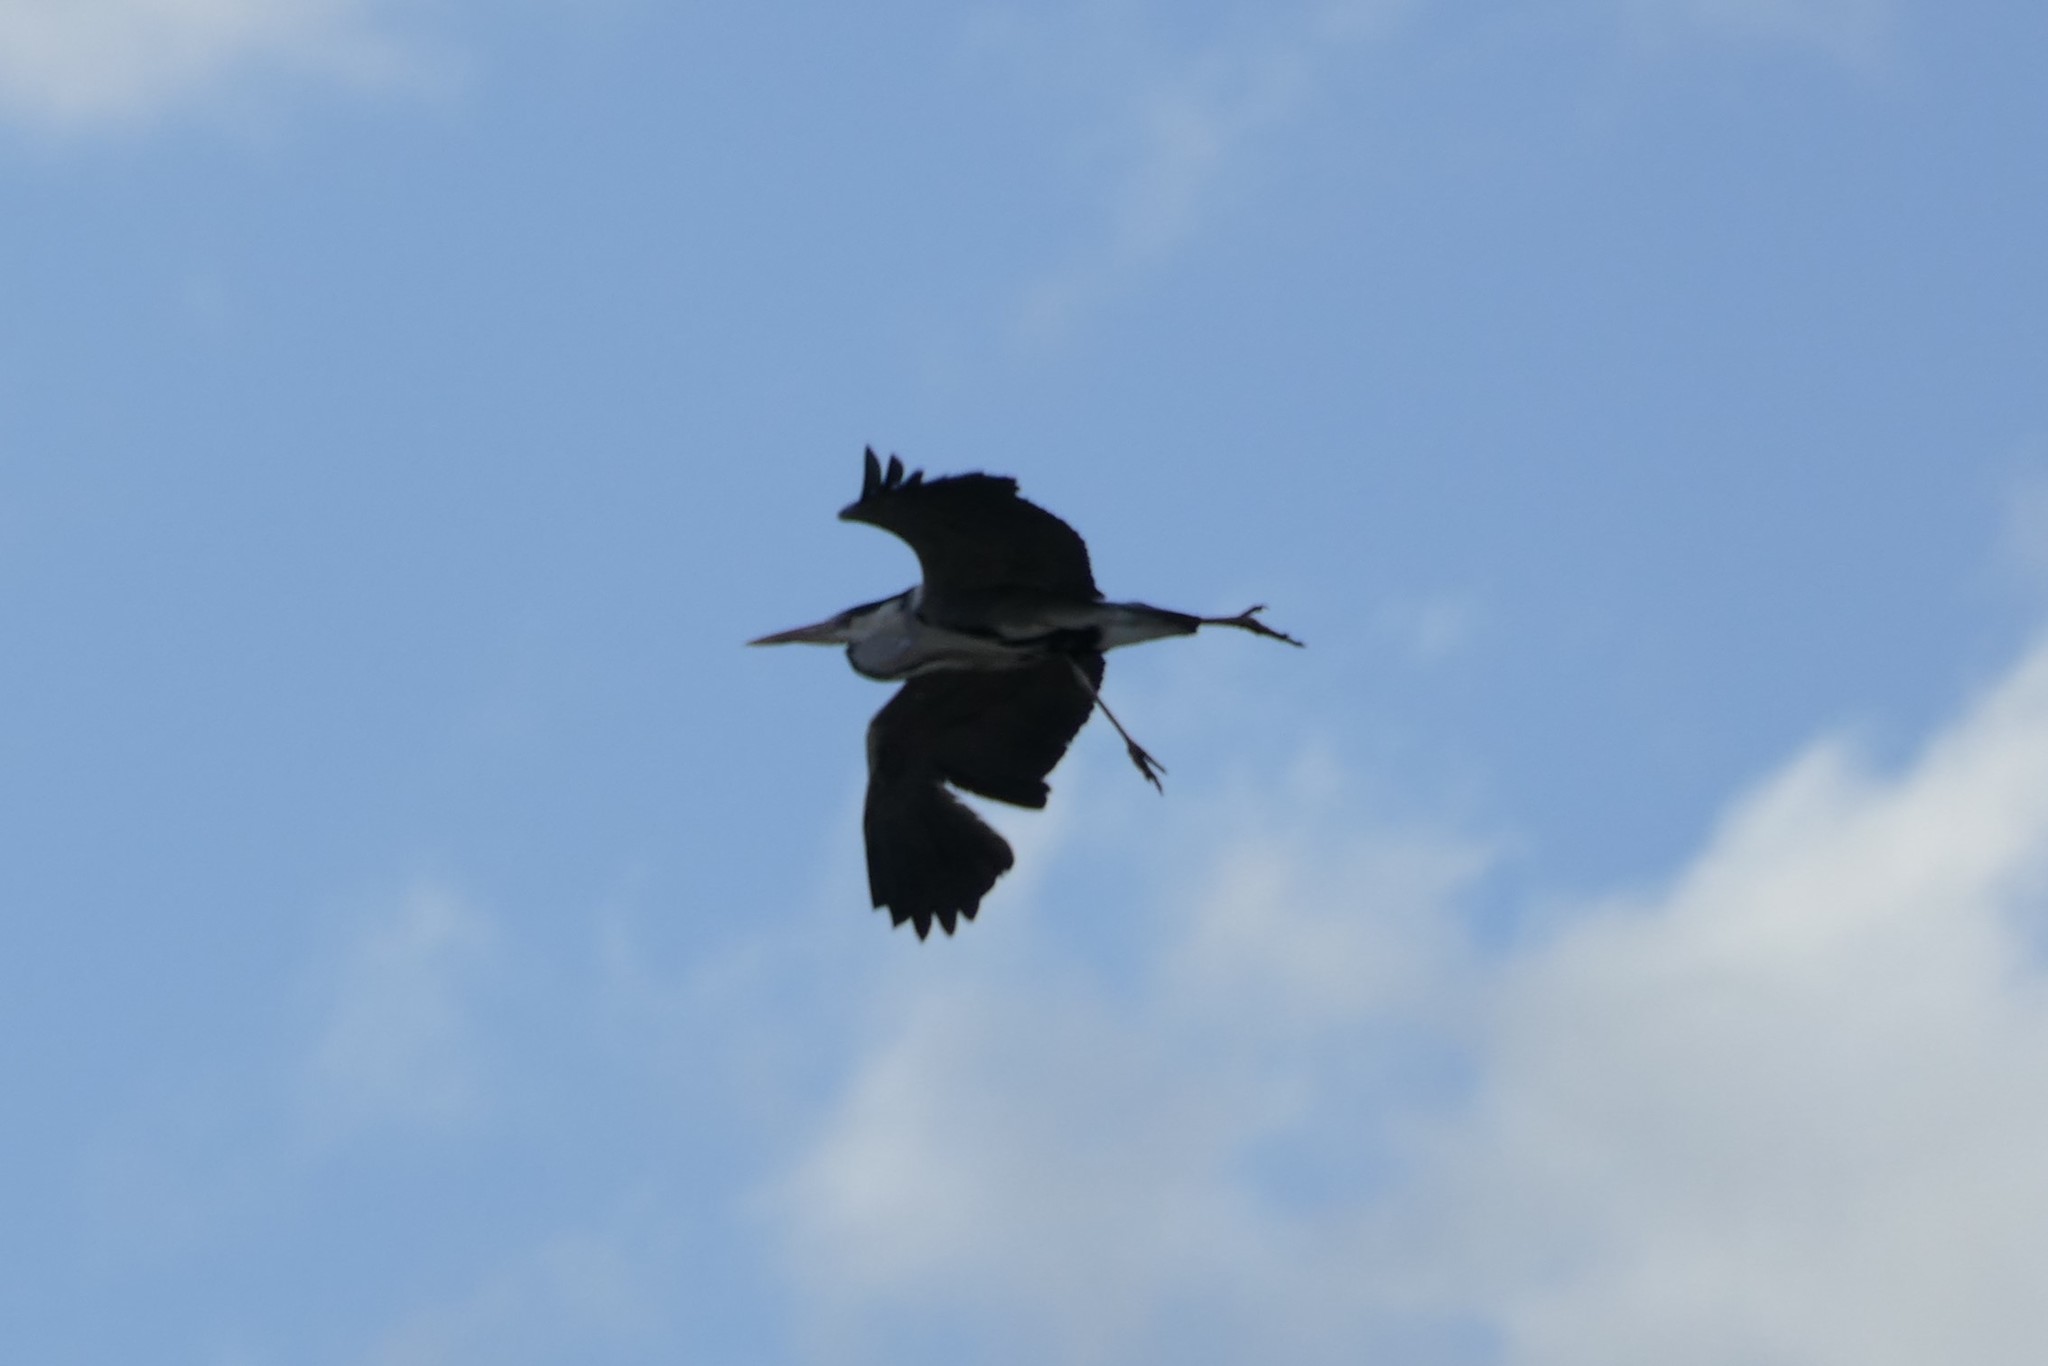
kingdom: Animalia
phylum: Chordata
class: Aves
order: Pelecaniformes
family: Ardeidae
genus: Ardea
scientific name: Ardea cinerea
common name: Grey heron
